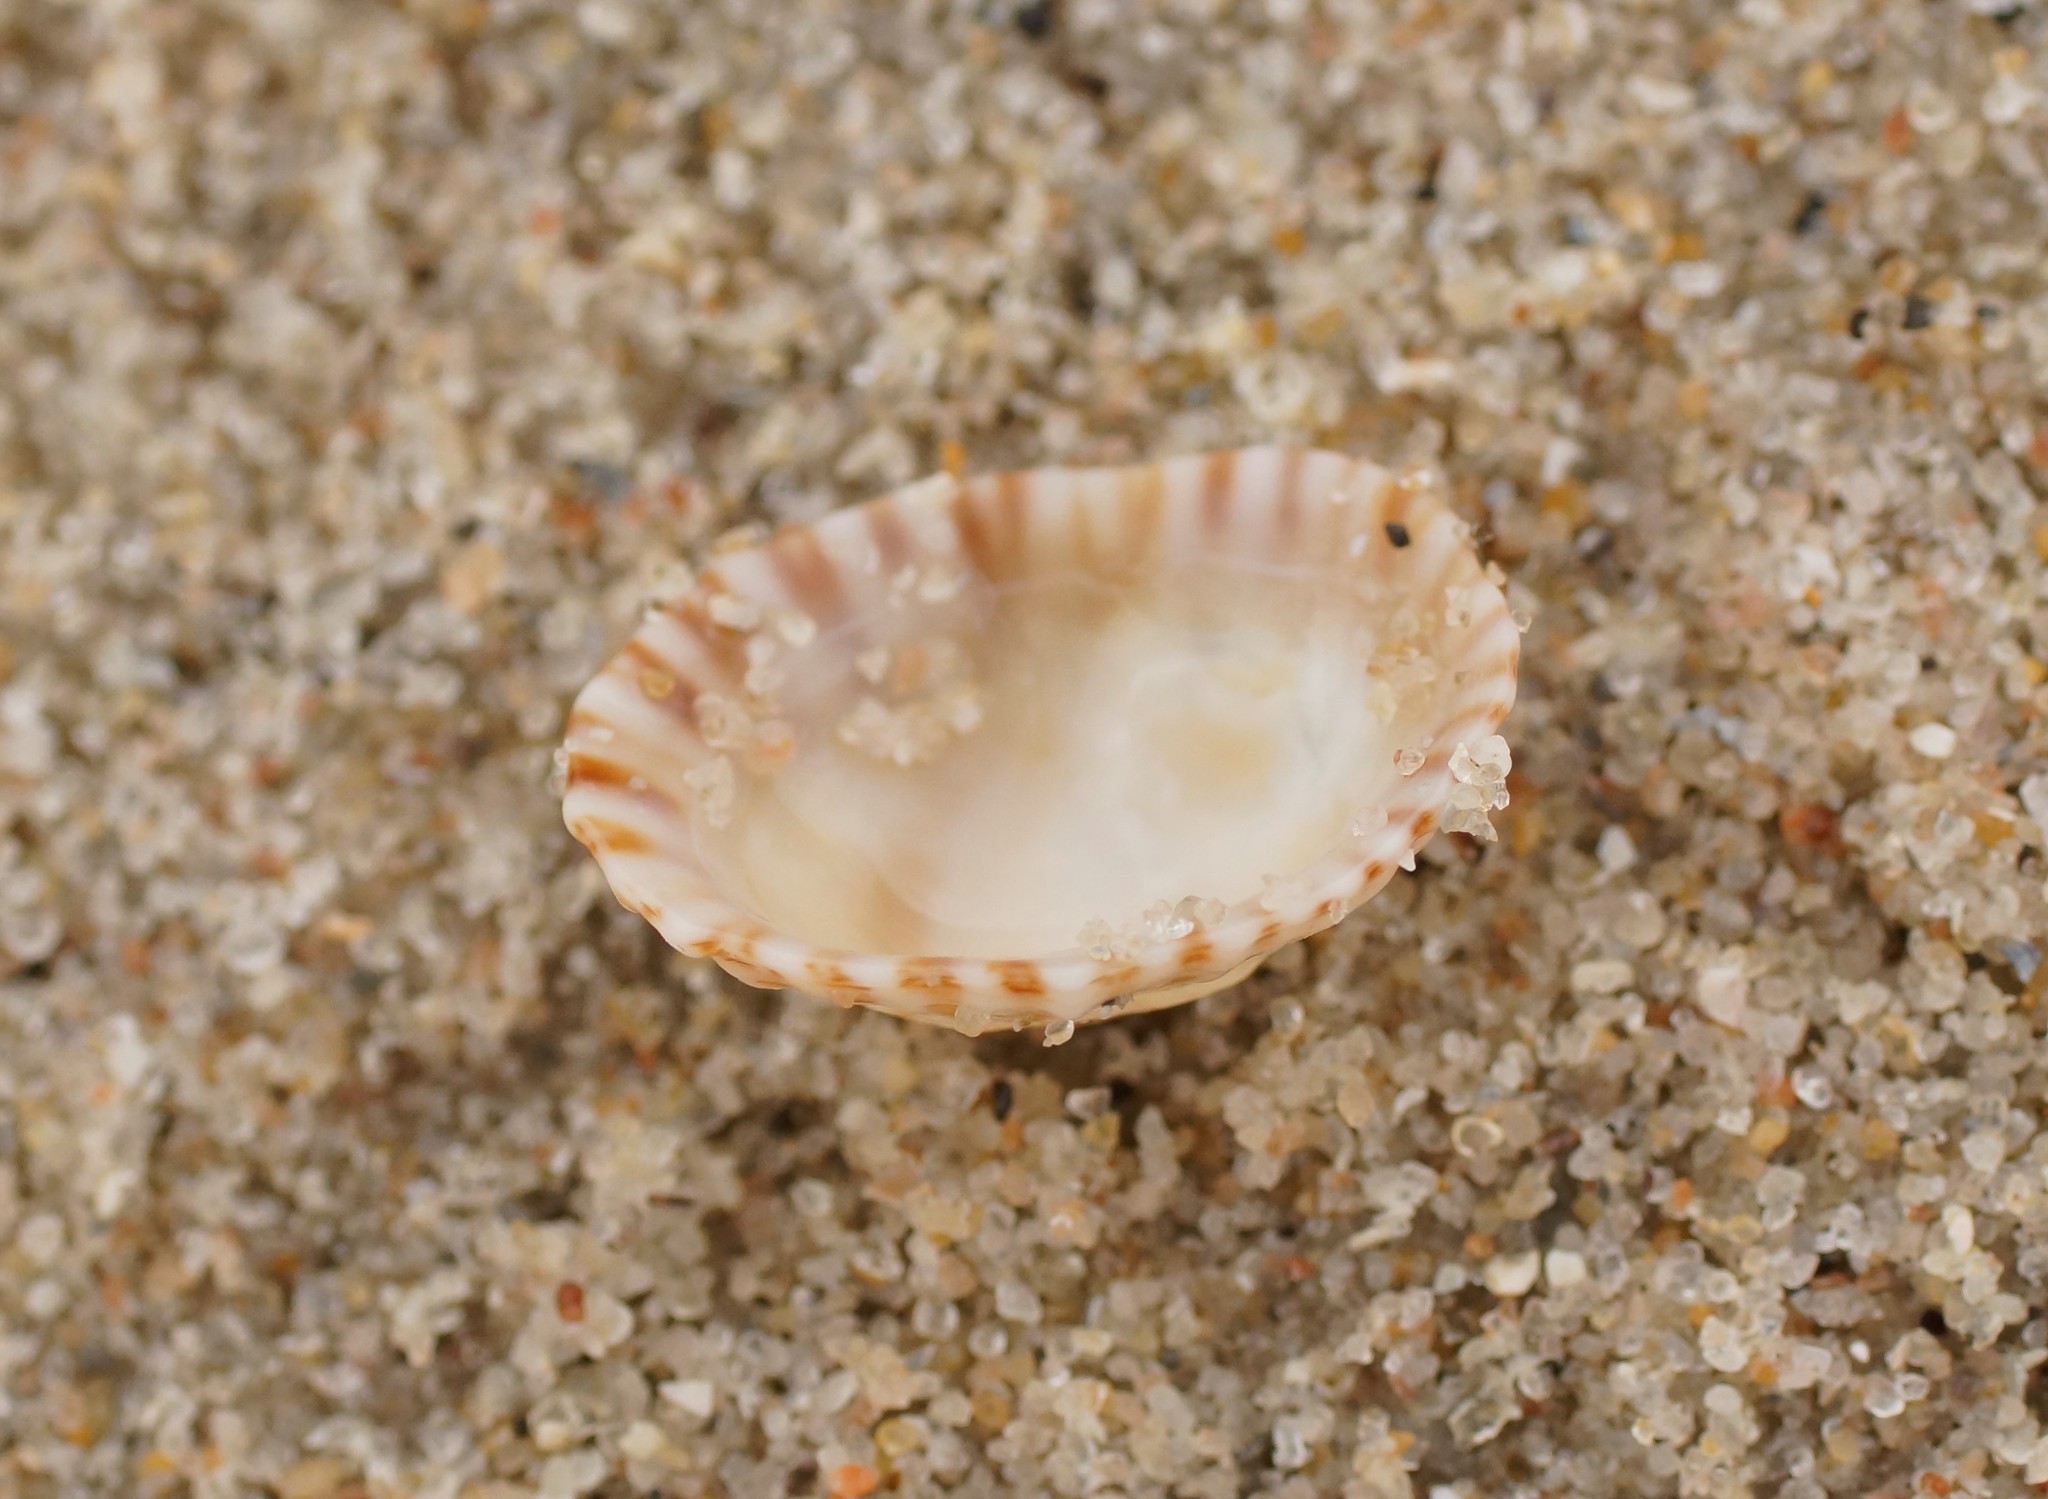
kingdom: Animalia
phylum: Mollusca
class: Gastropoda
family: Nacellidae
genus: Cellana
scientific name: Cellana tramoserica
